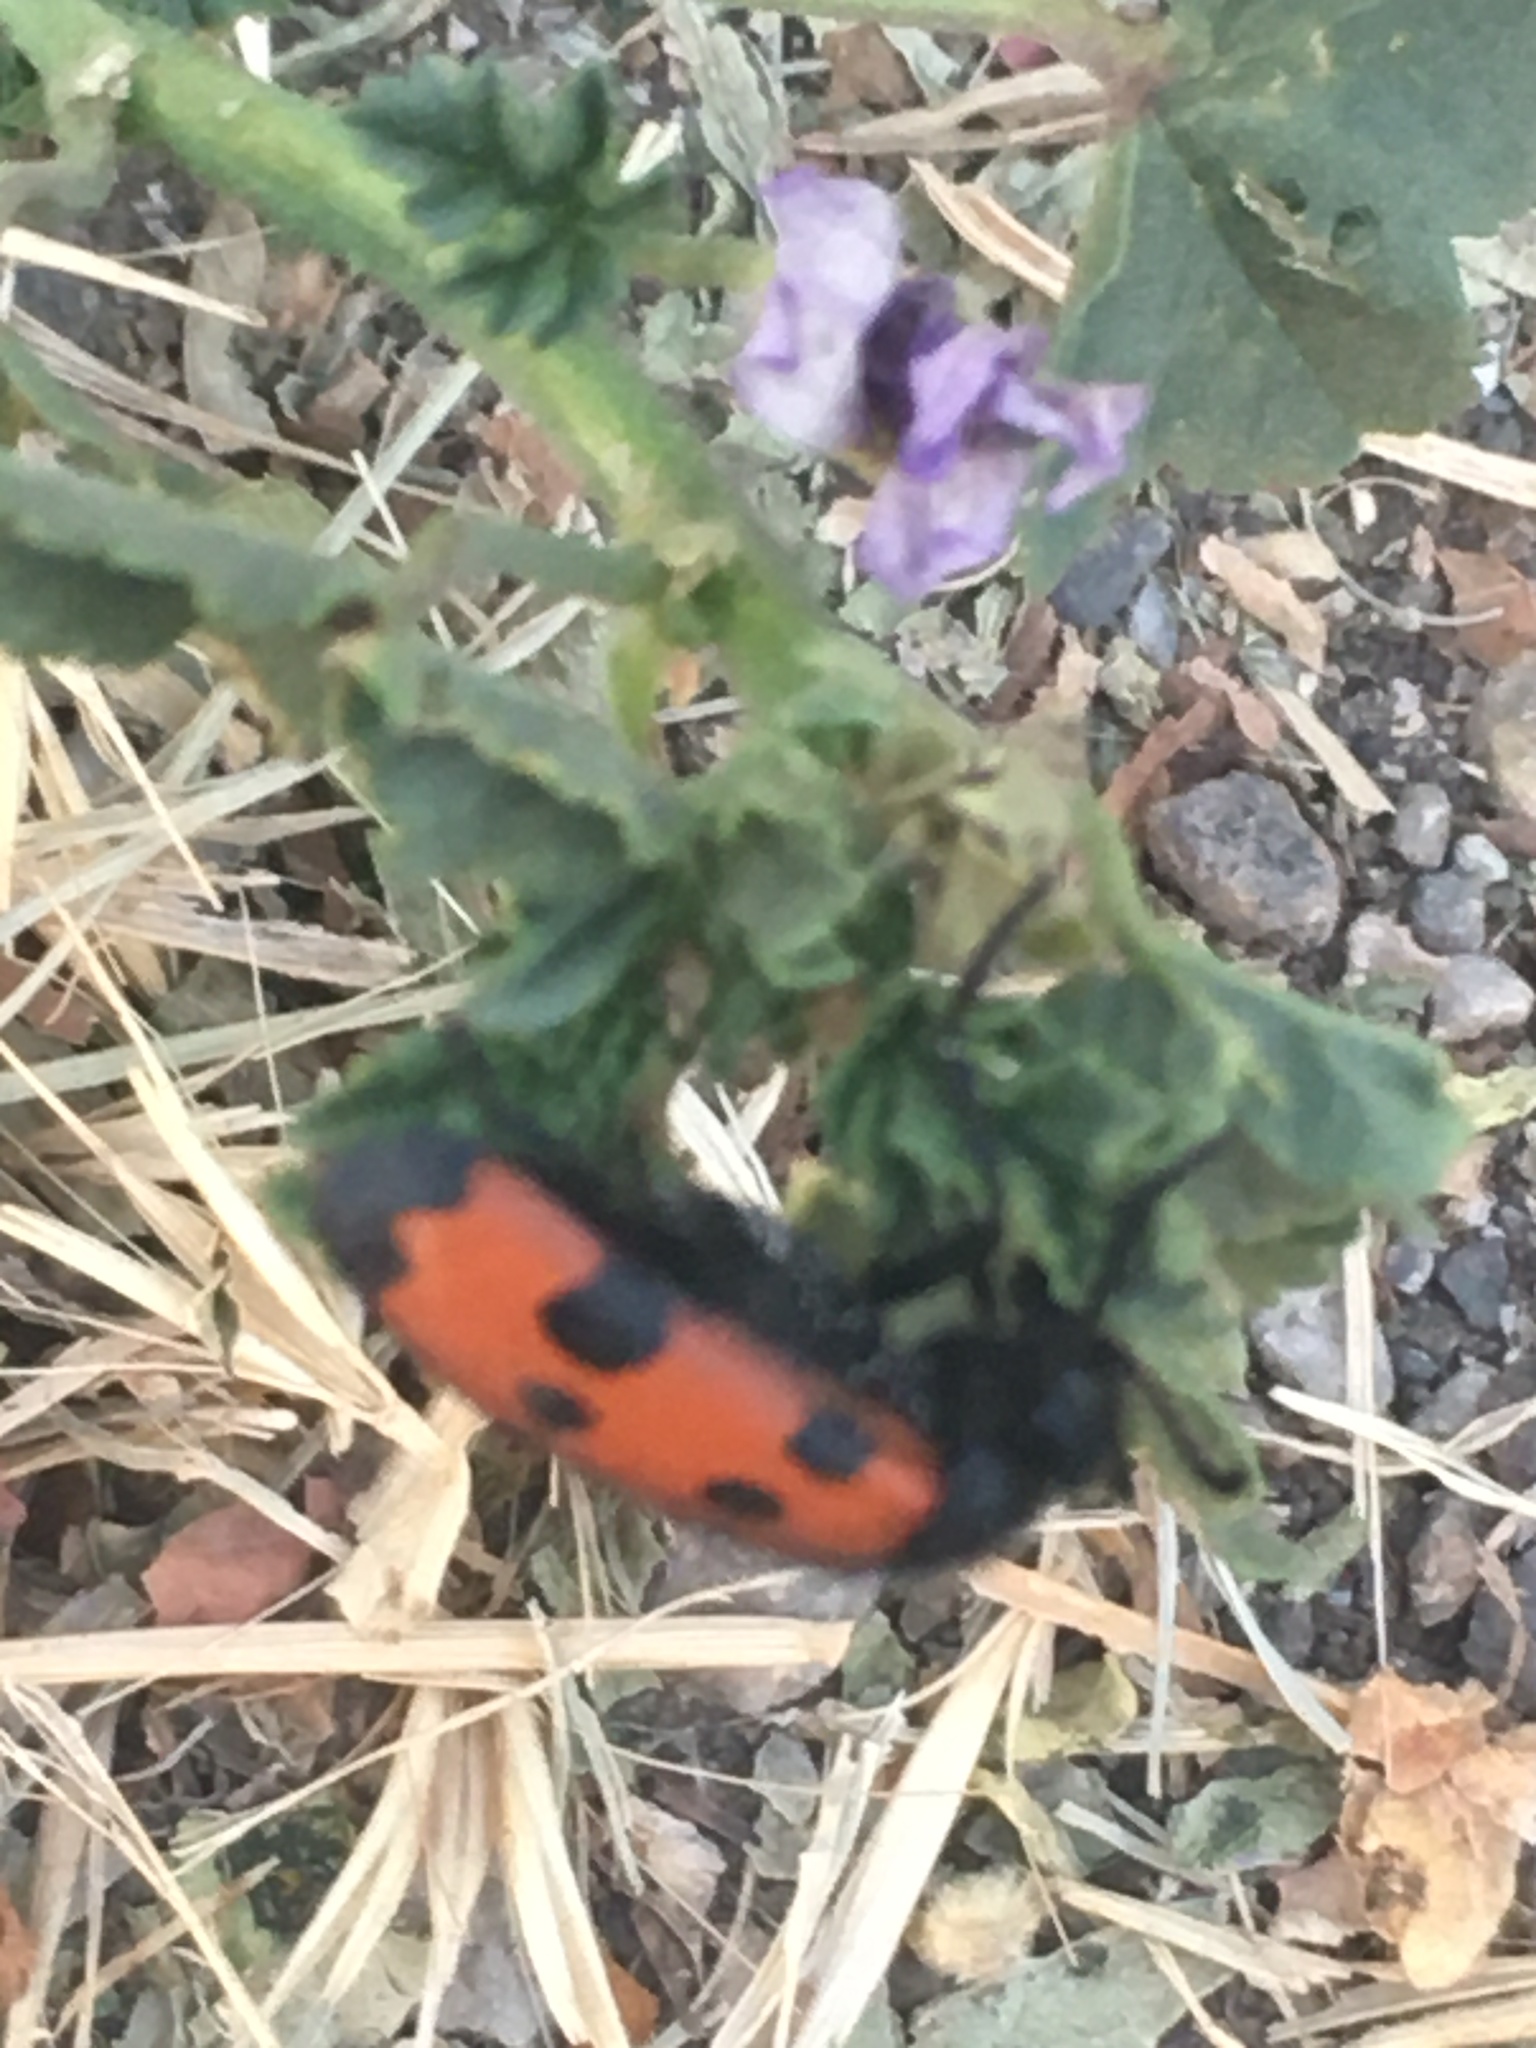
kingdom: Animalia
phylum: Arthropoda
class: Insecta
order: Coleoptera
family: Meloidae
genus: Mylabris
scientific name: Mylabris quadripunctata
